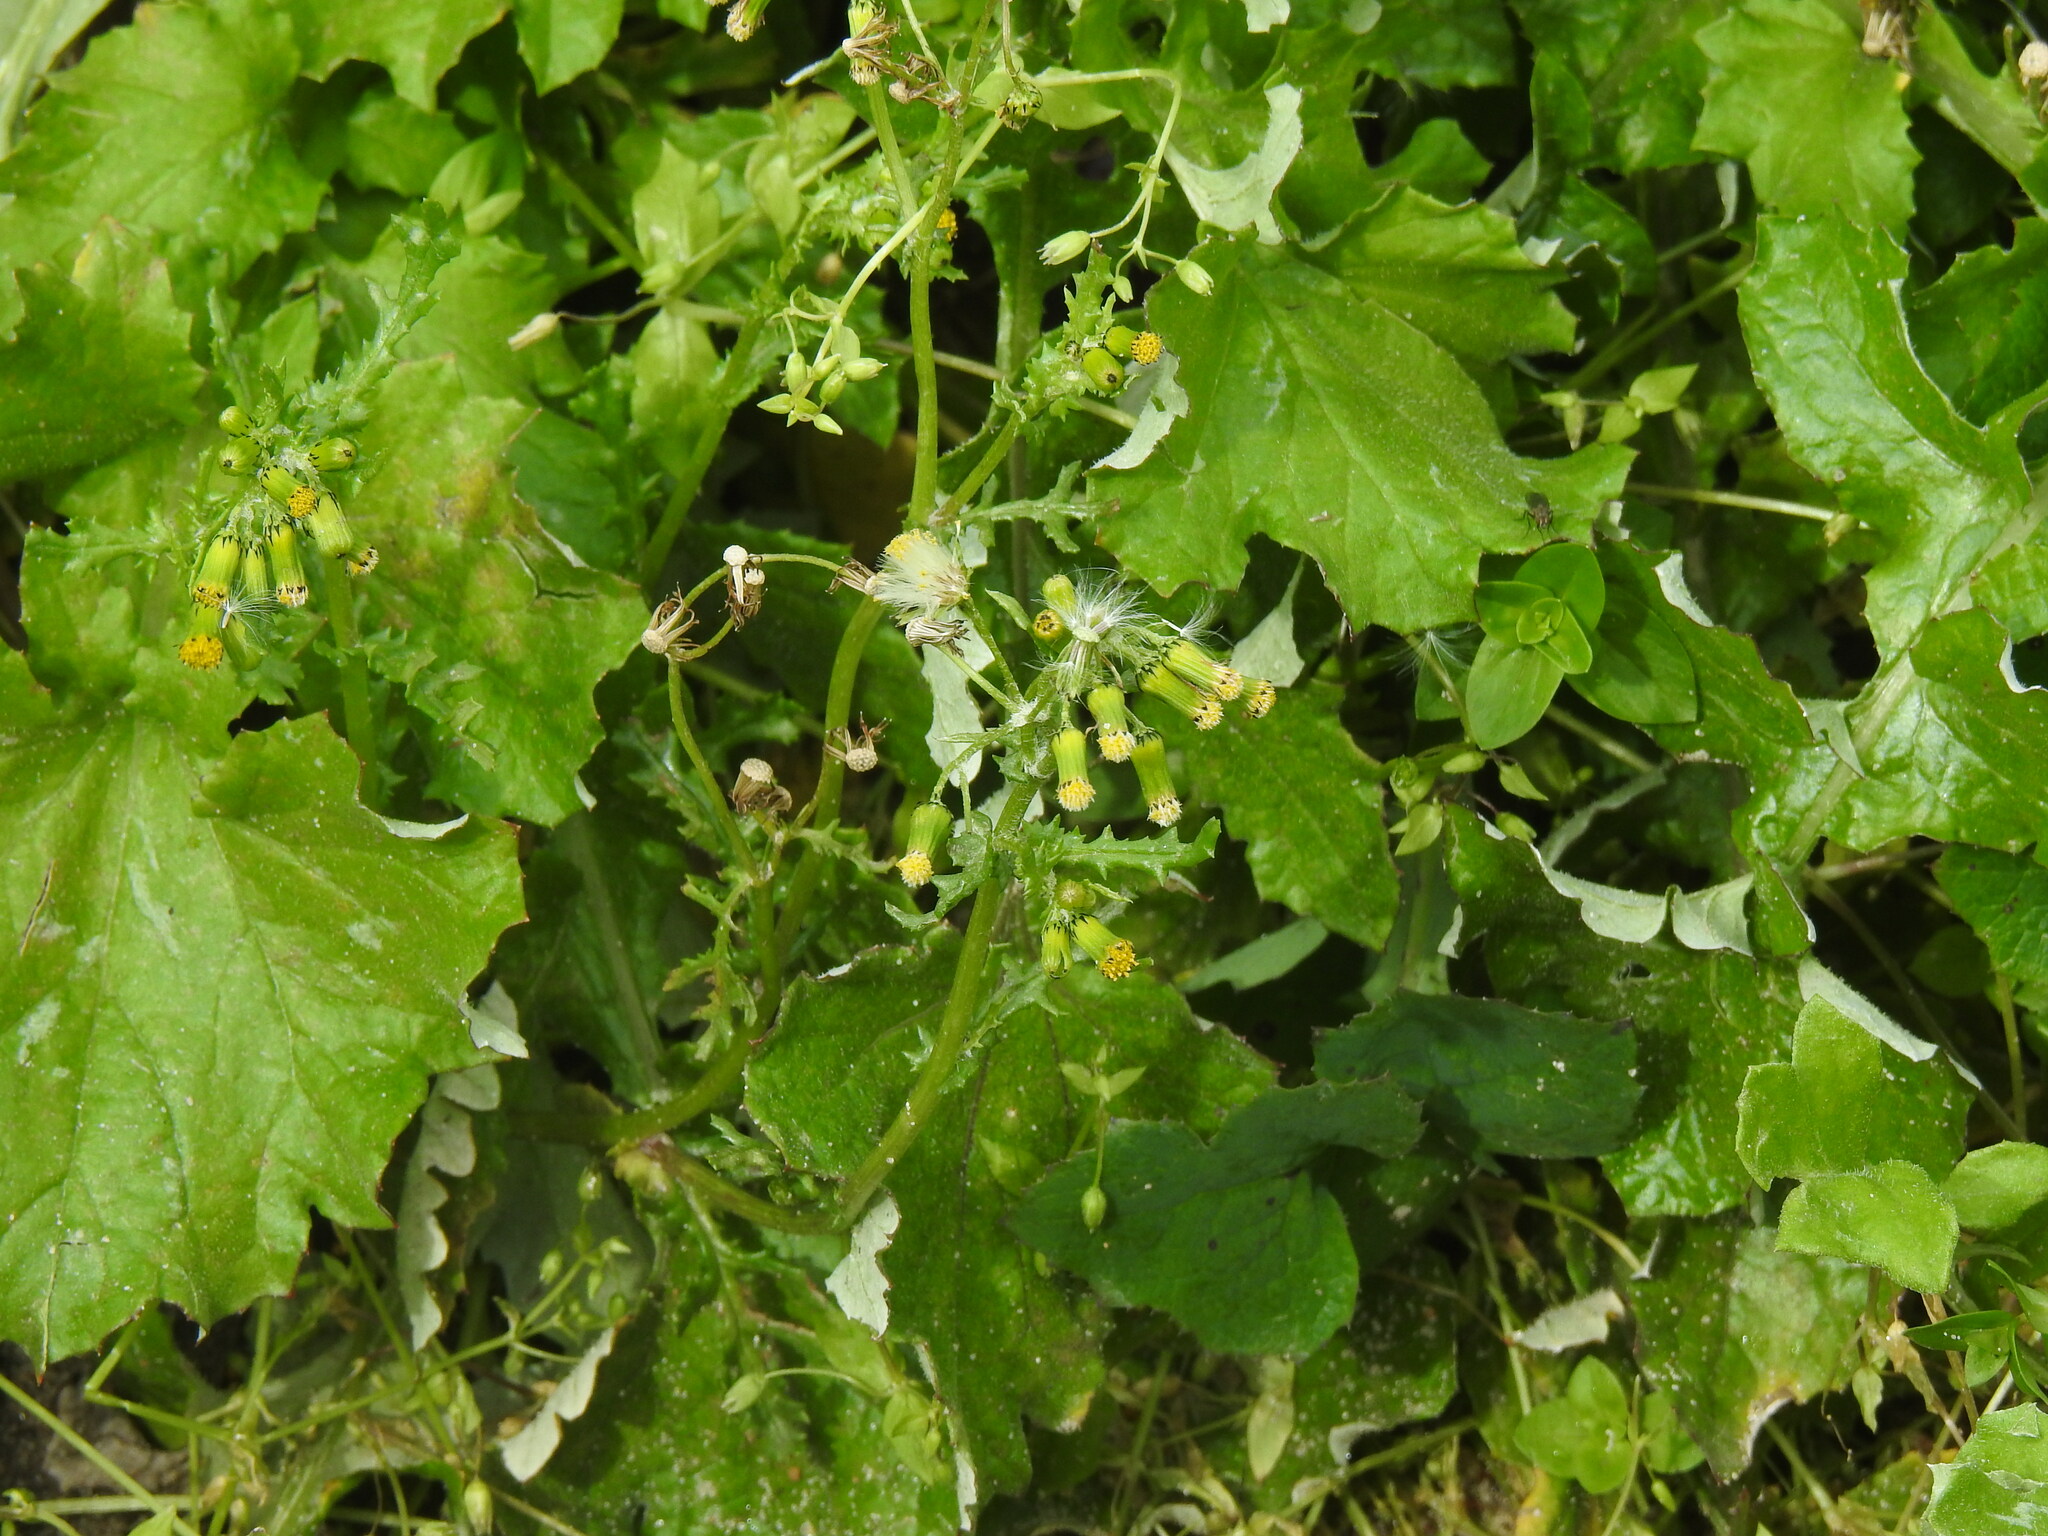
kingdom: Plantae
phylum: Tracheophyta
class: Magnoliopsida
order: Asterales
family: Asteraceae
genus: Senecio
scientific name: Senecio vulgaris
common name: Old-man-in-the-spring
